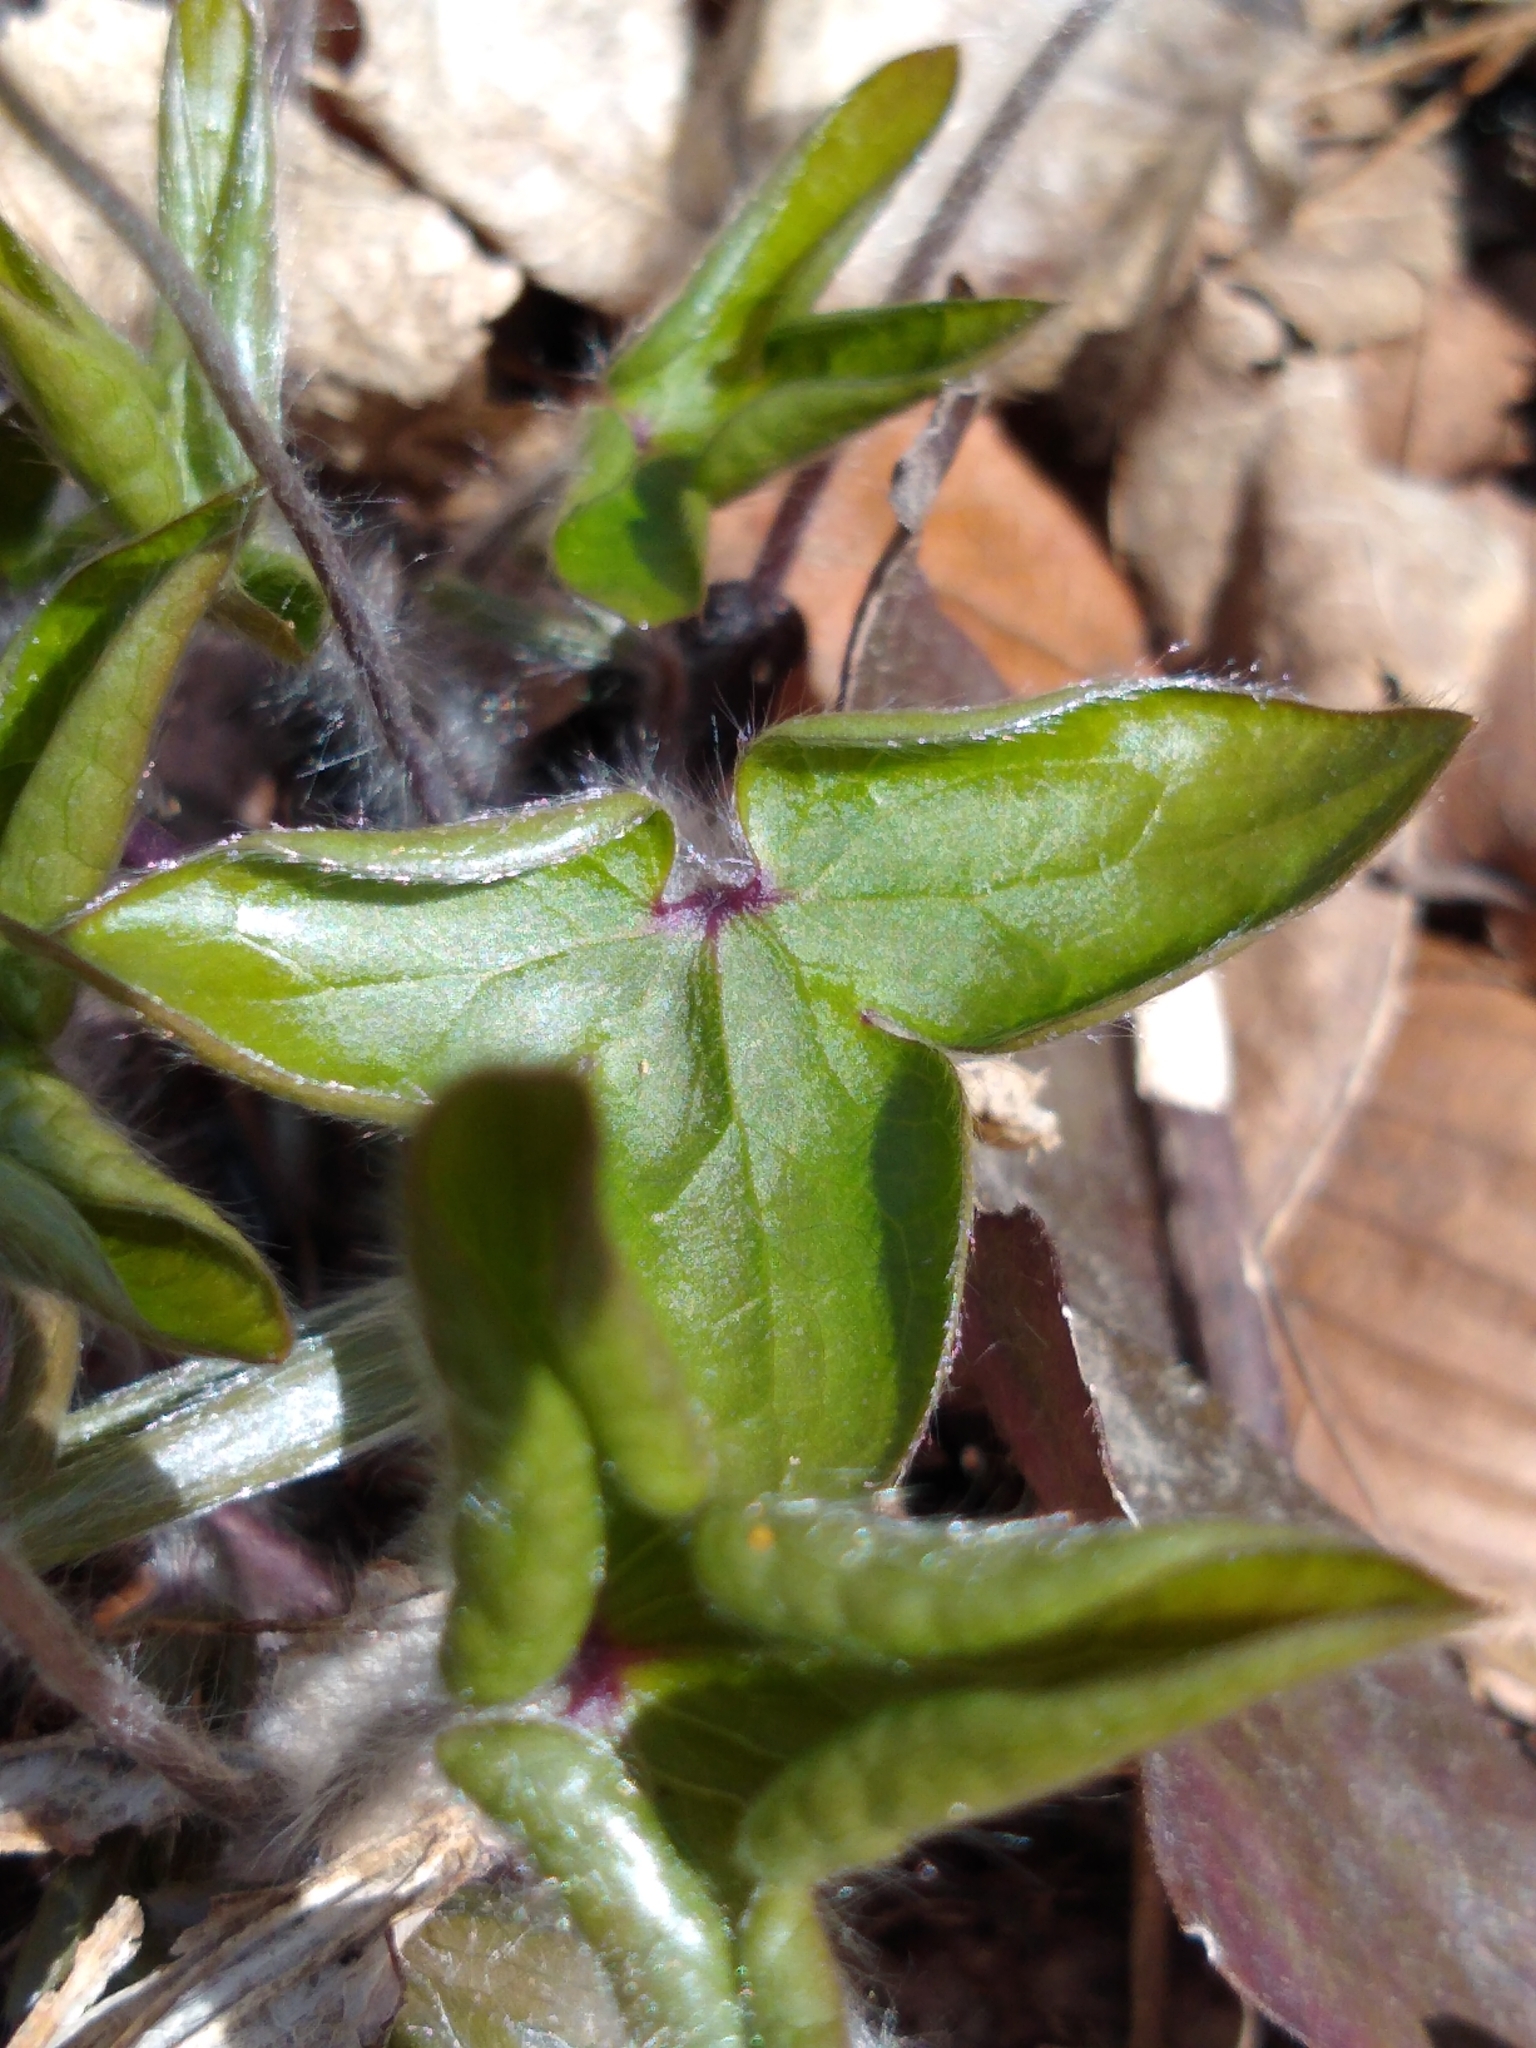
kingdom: Plantae
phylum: Tracheophyta
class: Magnoliopsida
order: Ranunculales
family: Ranunculaceae
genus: Hepatica
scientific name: Hepatica acutiloba
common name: Sharp-lobed hepatica
